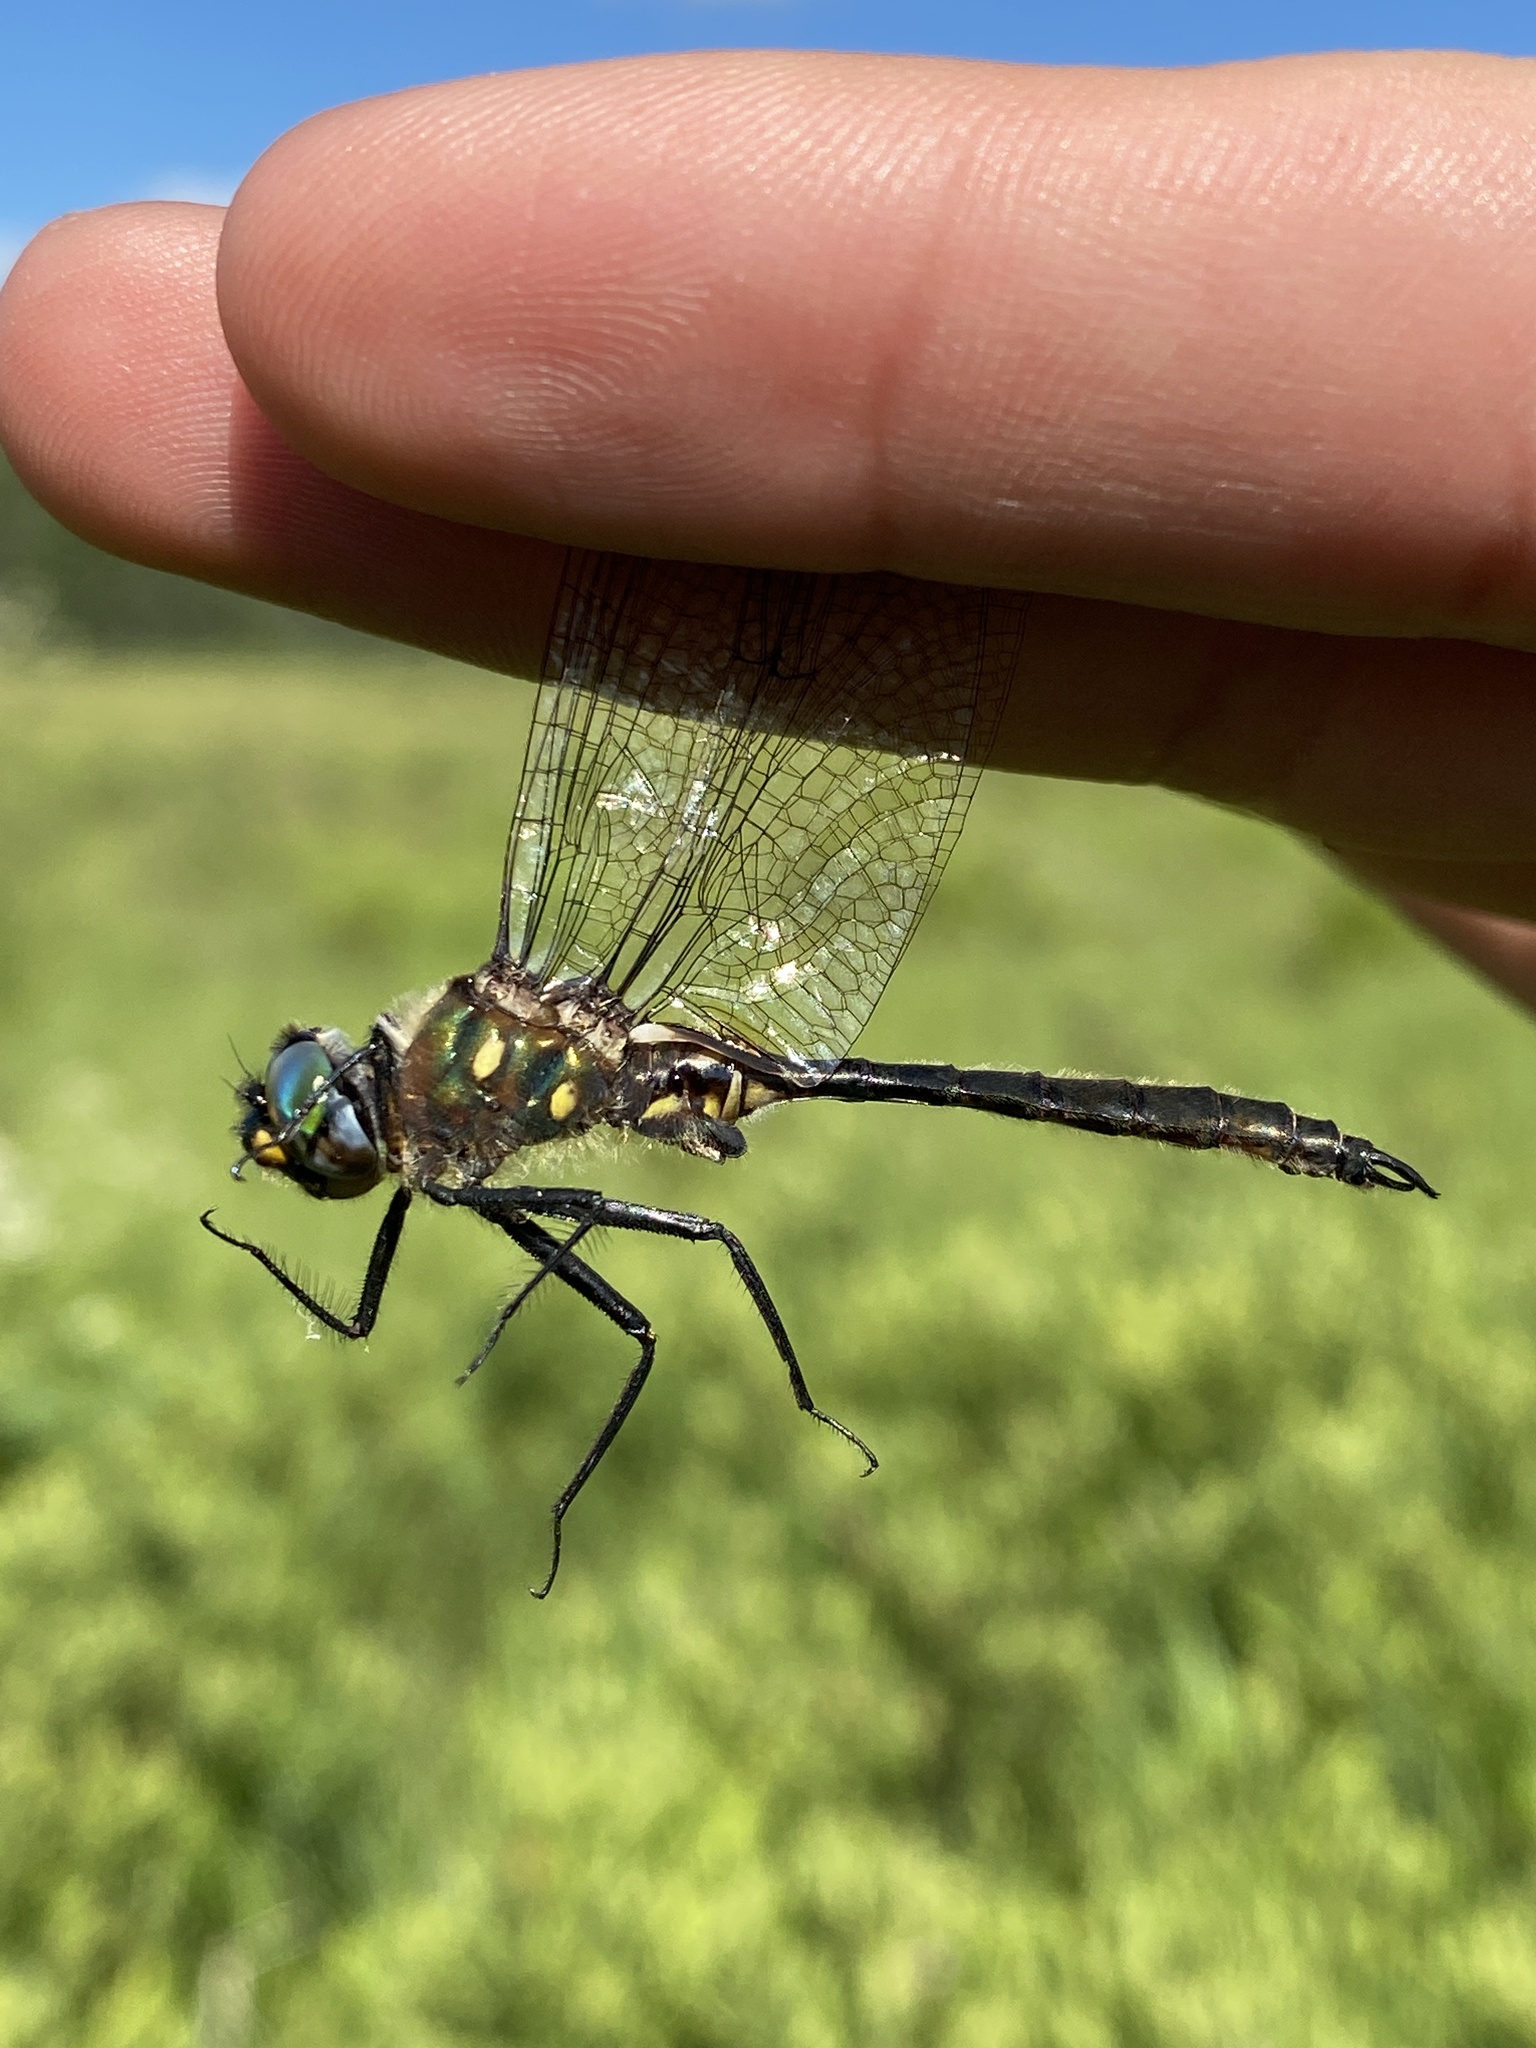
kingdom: Animalia
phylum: Arthropoda
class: Insecta
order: Odonata
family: Corduliidae
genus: Somatochlora
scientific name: Somatochlora minor
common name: Ocellated emerald
